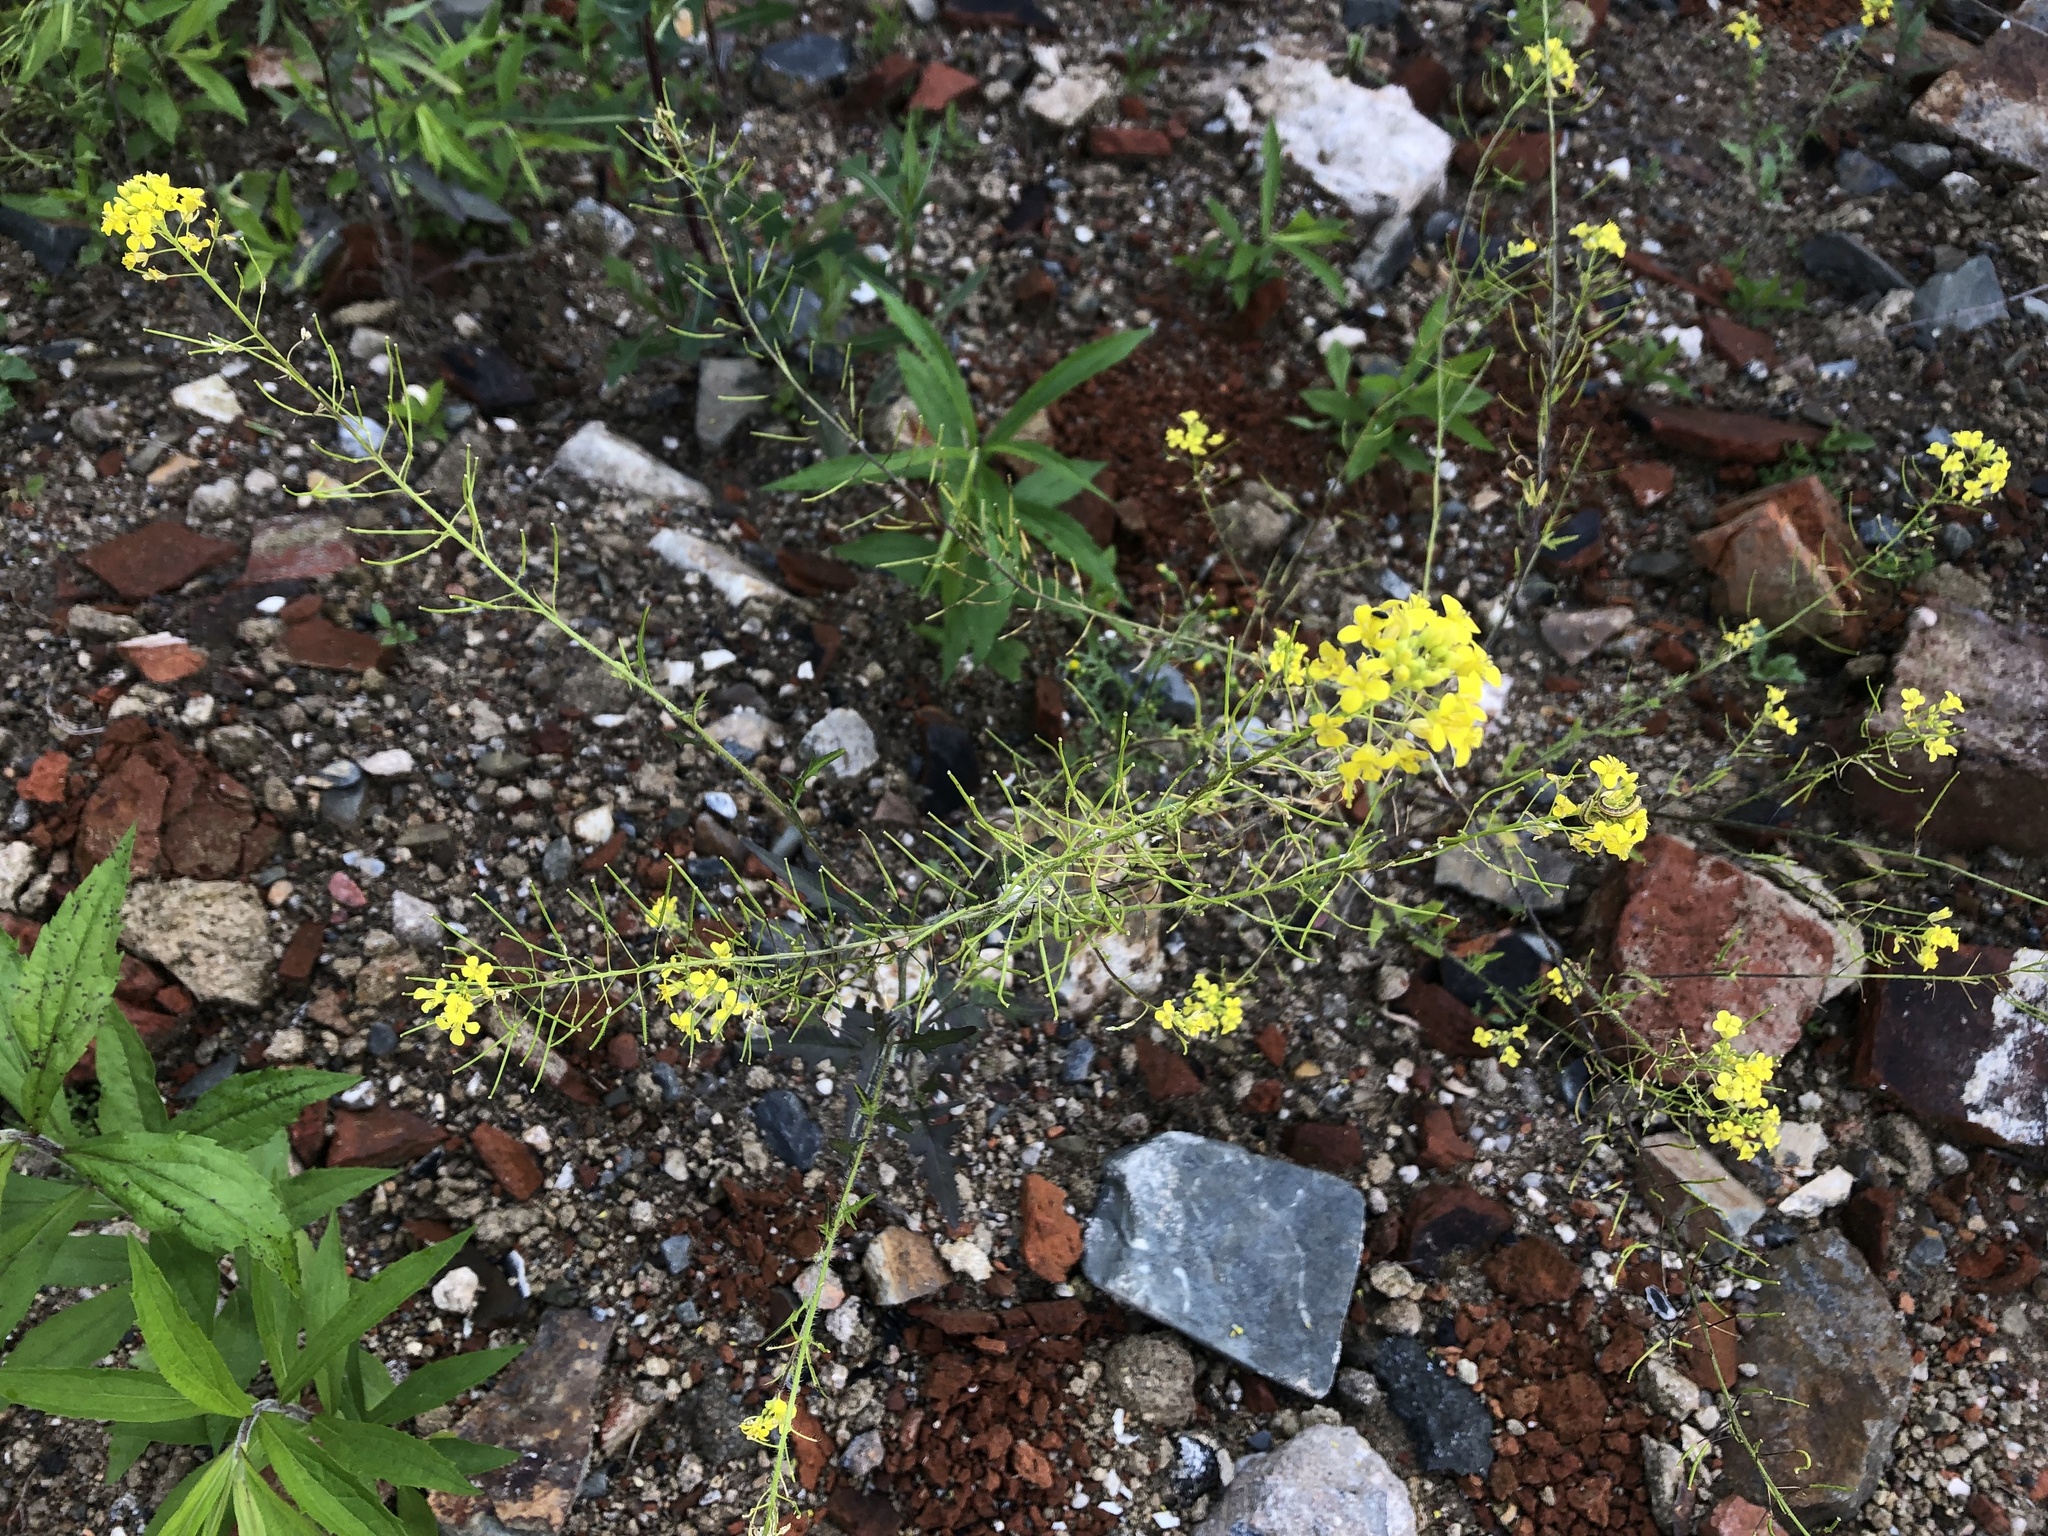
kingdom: Plantae
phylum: Tracheophyta
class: Magnoliopsida
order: Brassicales
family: Brassicaceae
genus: Sisymbrium
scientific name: Sisymbrium loeselii
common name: False london-rocket
